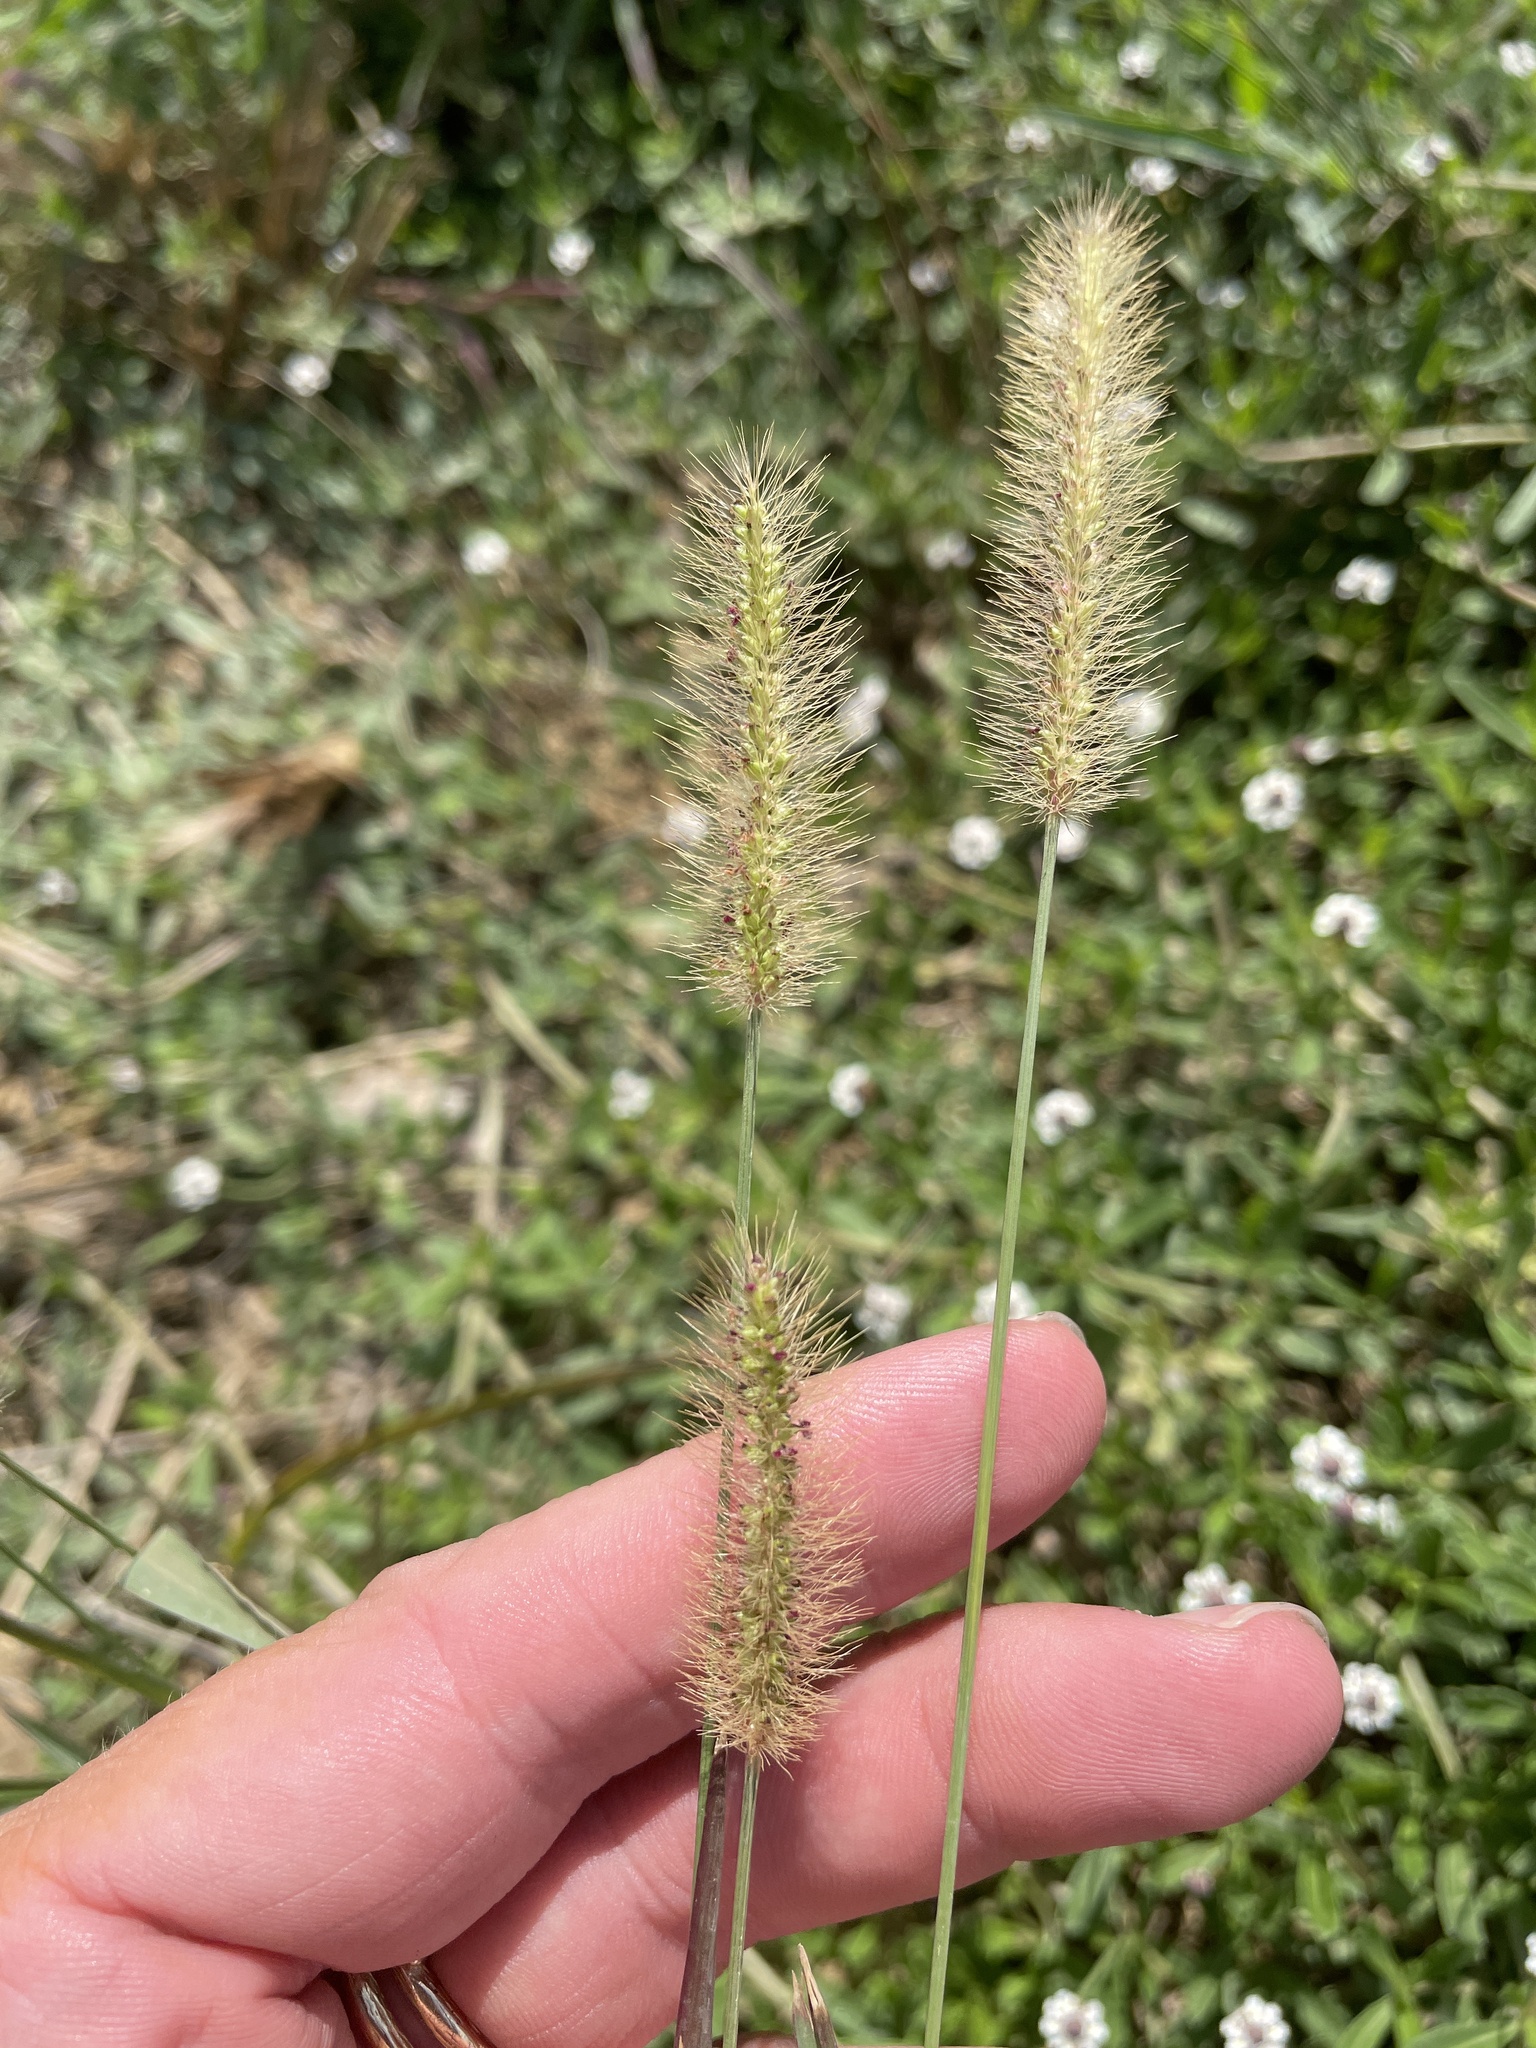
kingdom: Plantae
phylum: Tracheophyta
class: Liliopsida
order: Poales
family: Poaceae
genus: Setaria
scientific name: Setaria parviflora
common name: Knotroot bristle-grass
